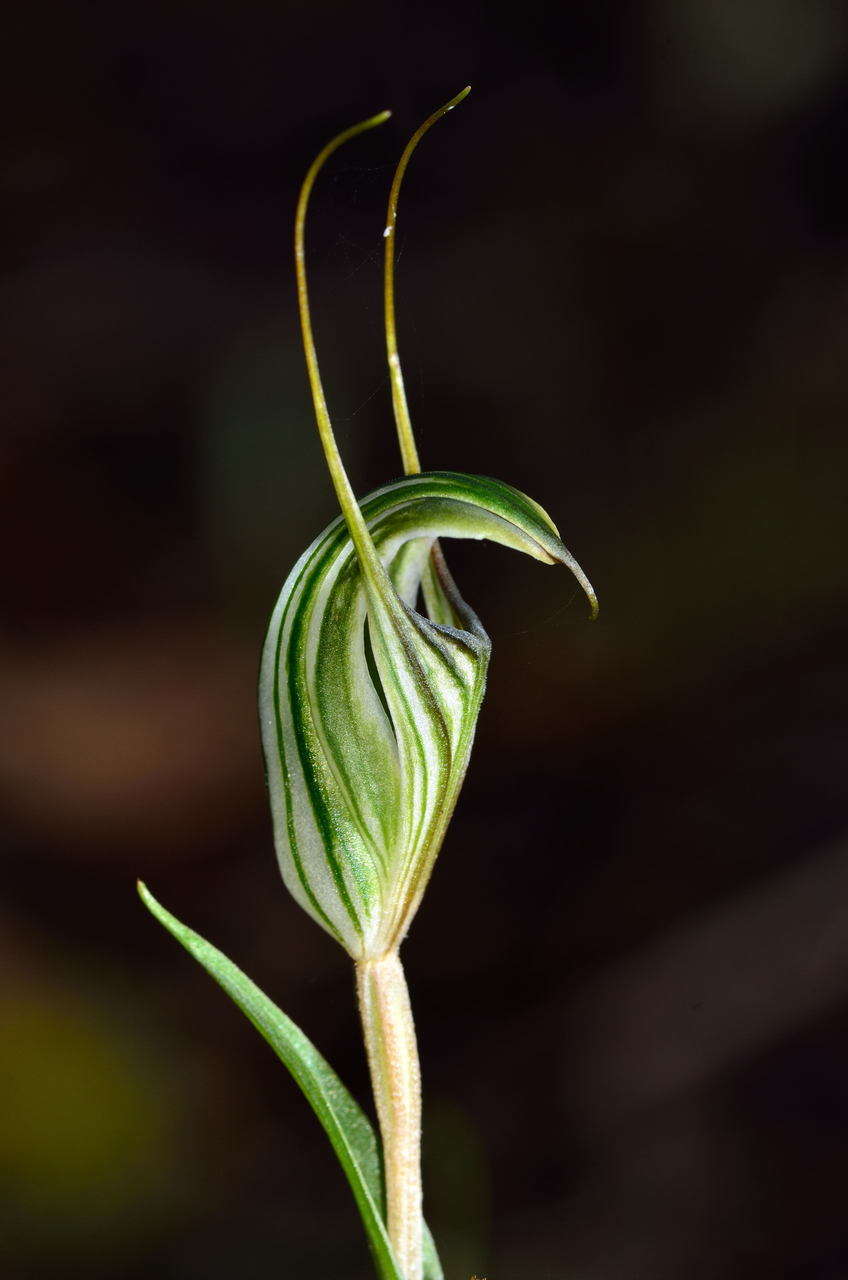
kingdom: Plantae
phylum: Tracheophyta
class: Liliopsida
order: Asparagales
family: Orchidaceae
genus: Pterostylis
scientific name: Pterostylis alata
